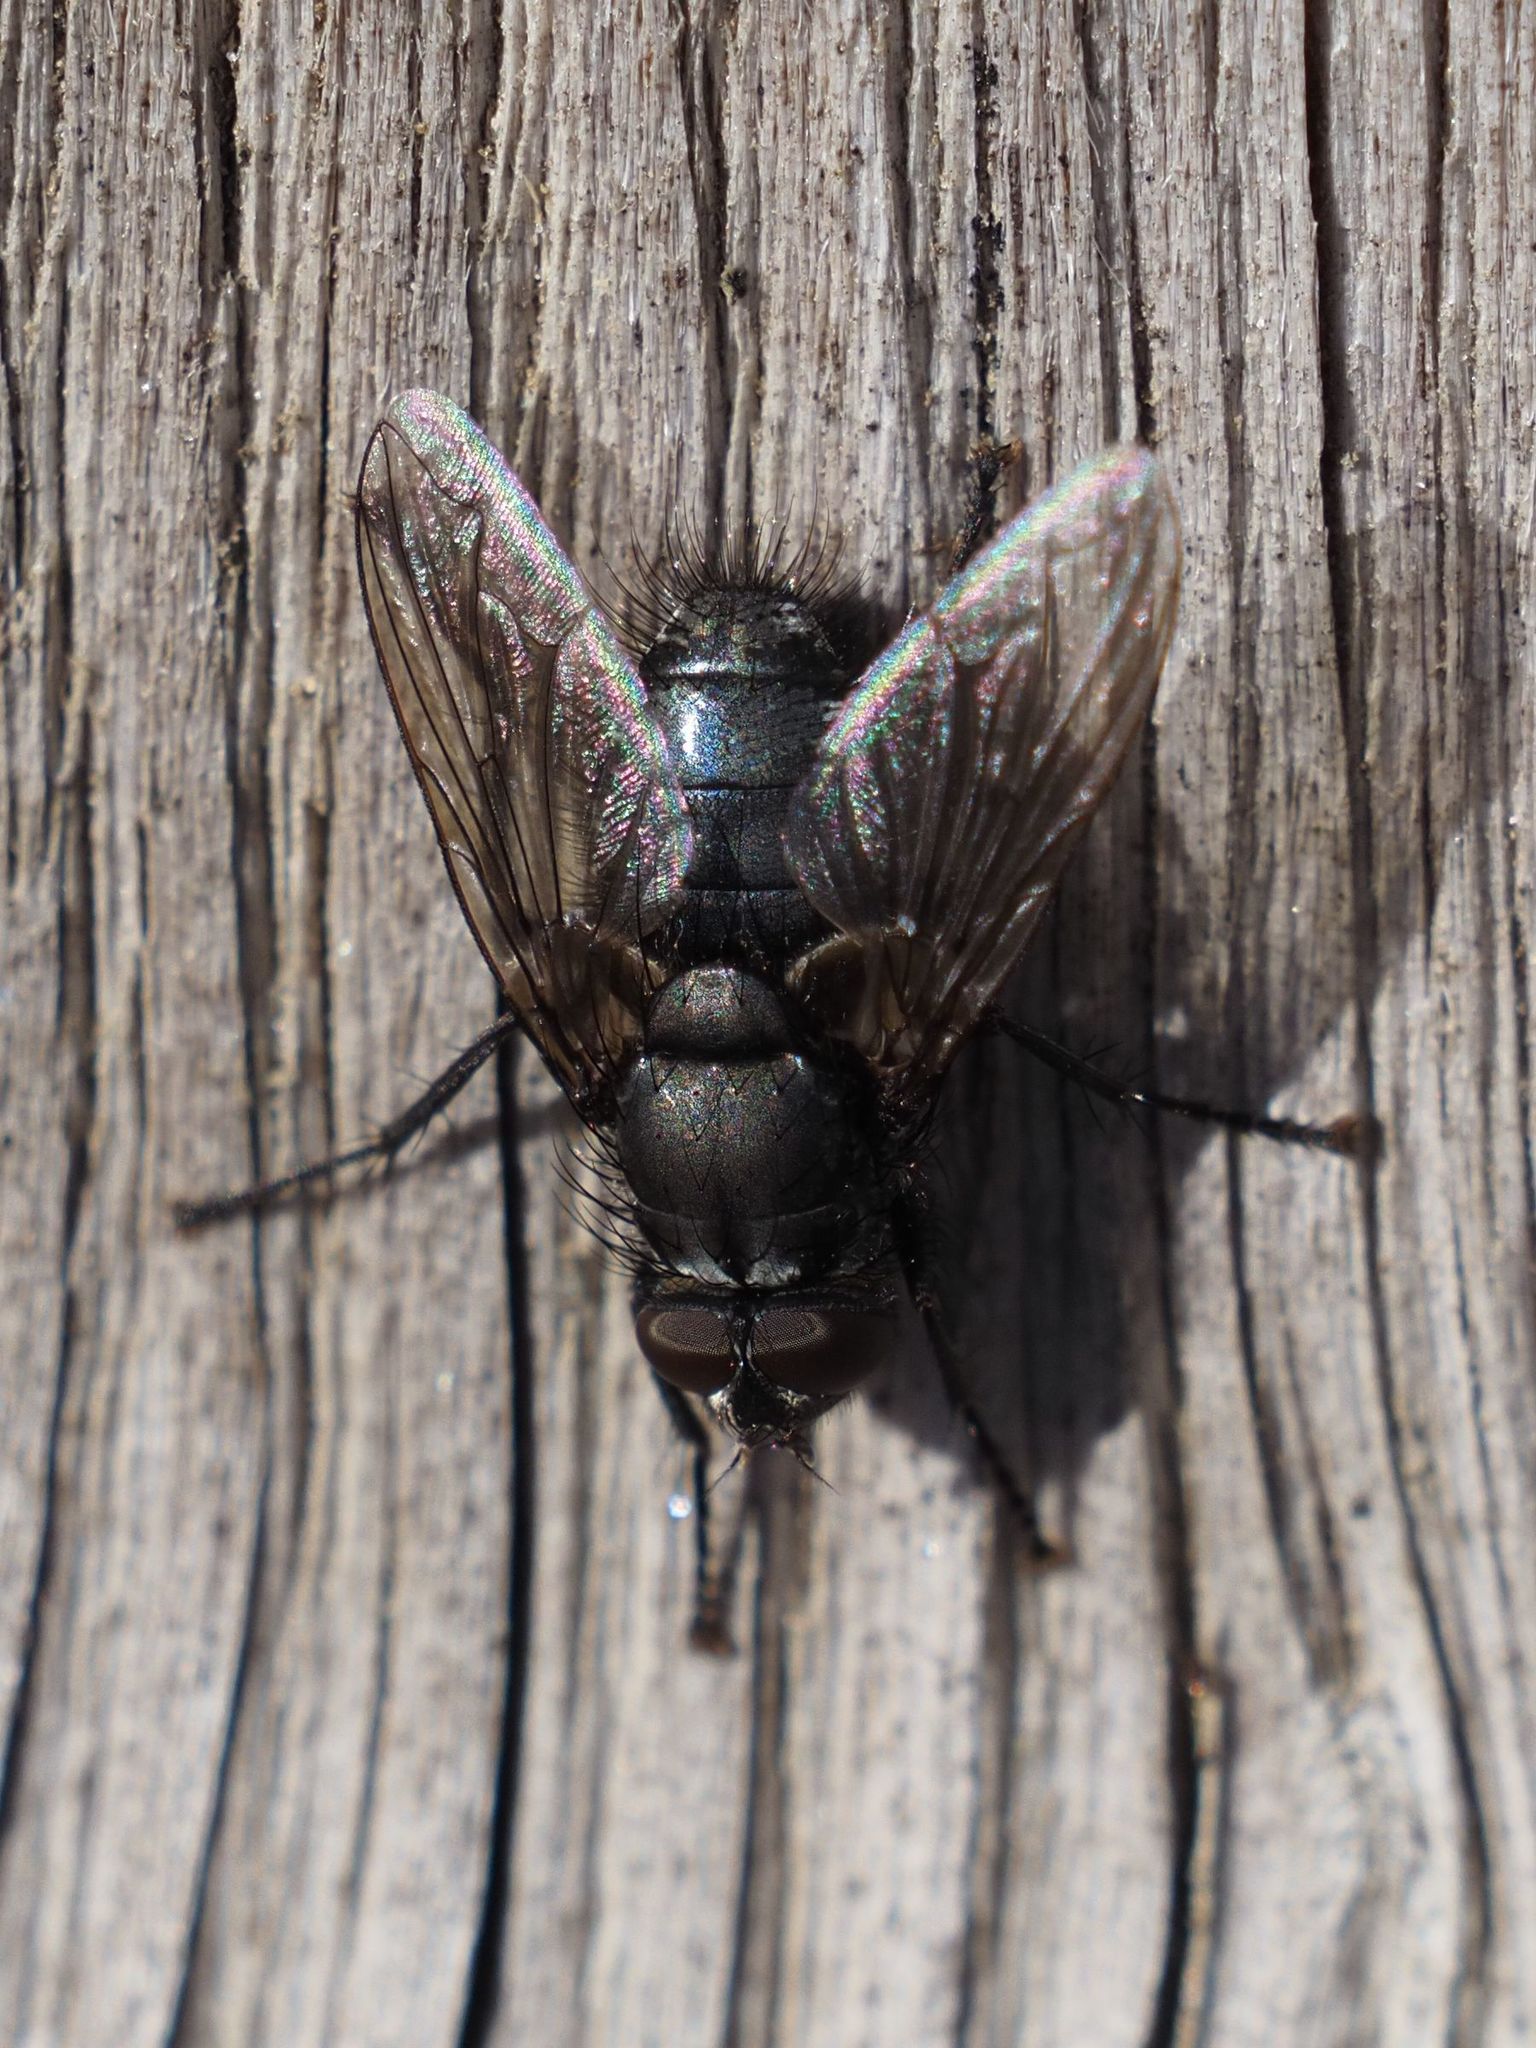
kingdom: Animalia
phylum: Arthropoda
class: Insecta
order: Diptera
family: Polleniidae
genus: Pollenia
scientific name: Pollenia vagabunda
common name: Vagabund cluster fly
